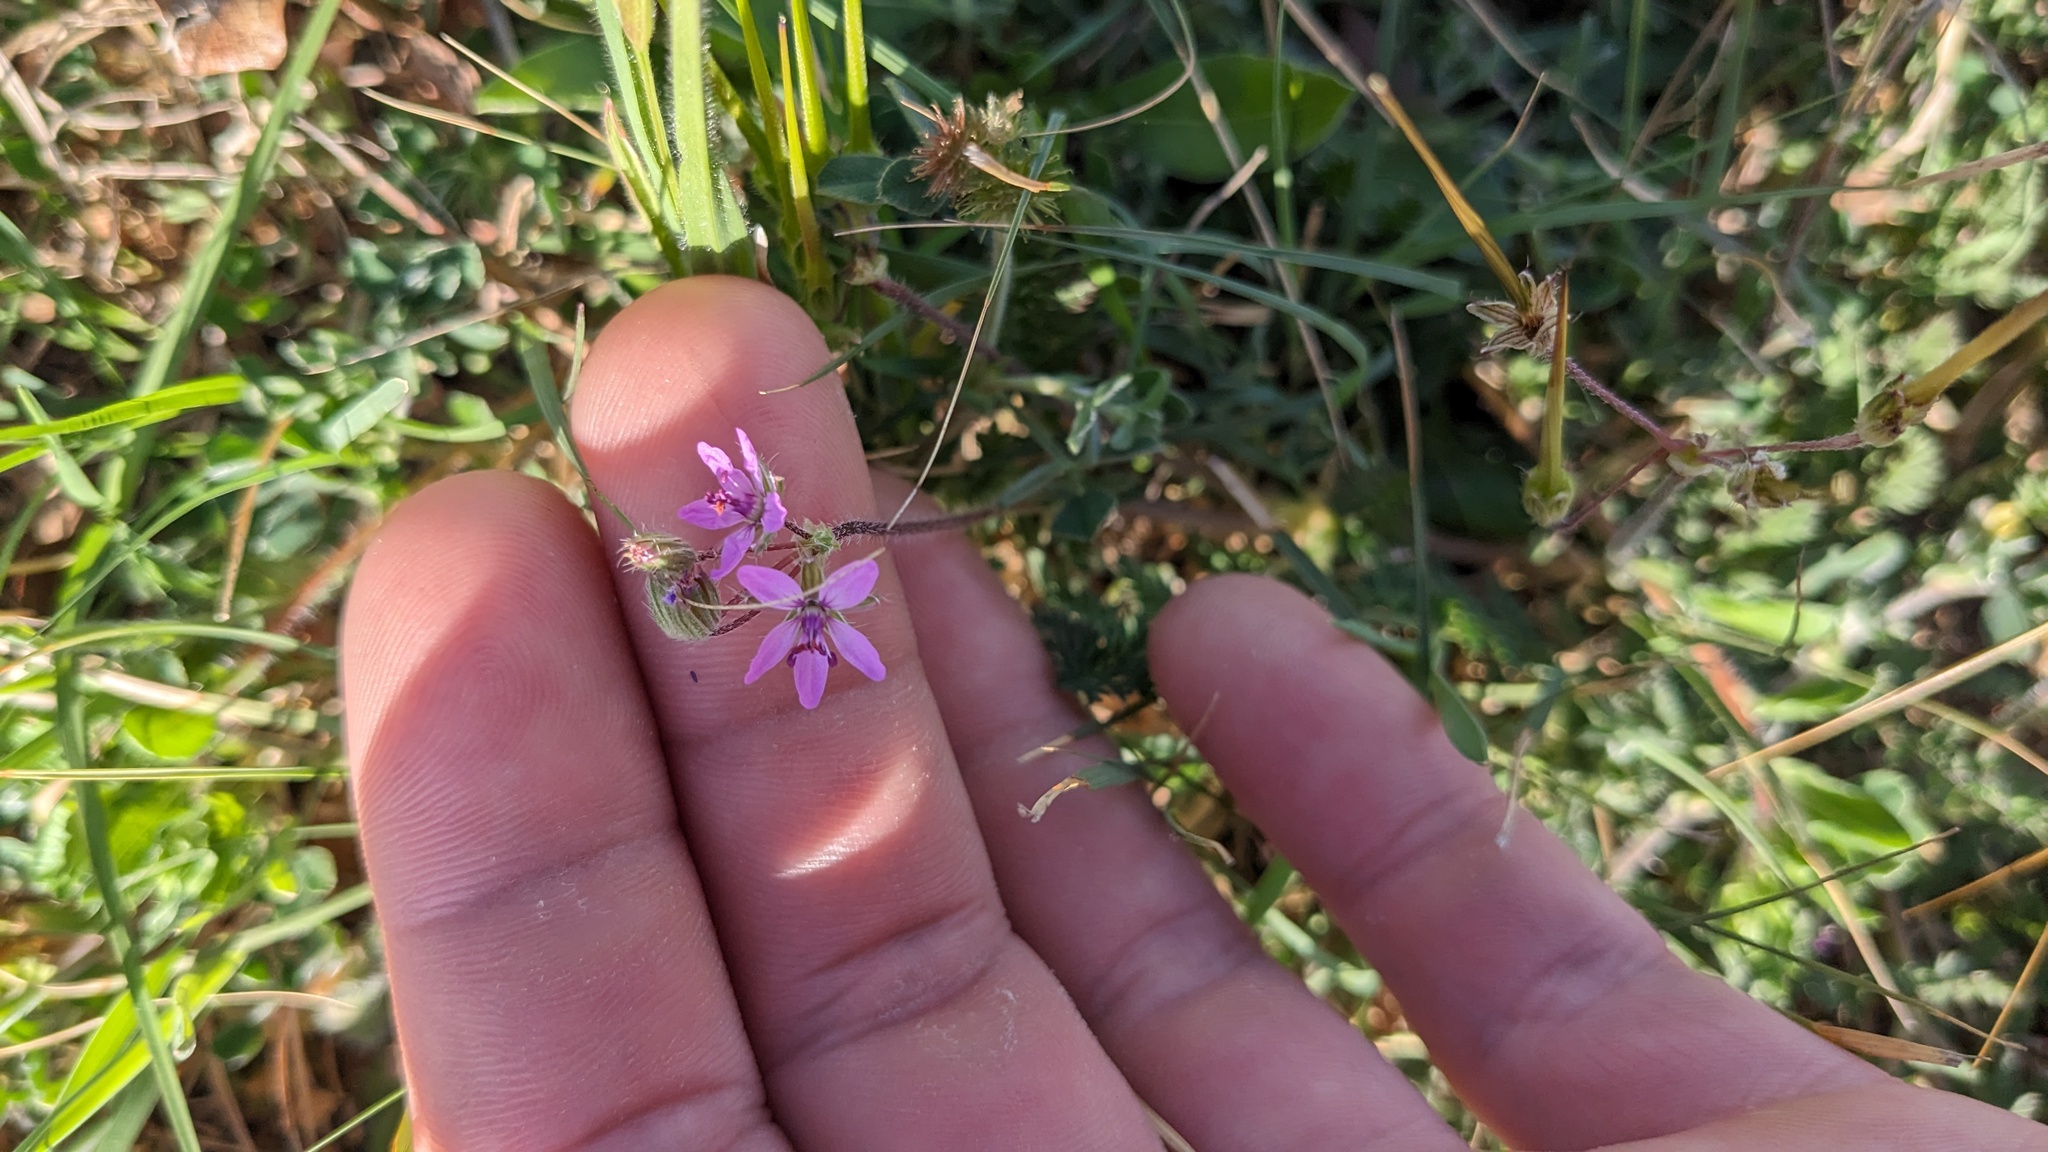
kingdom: Plantae
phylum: Tracheophyta
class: Magnoliopsida
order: Geraniales
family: Geraniaceae
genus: Erodium
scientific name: Erodium cicutarium
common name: Common stork's-bill
